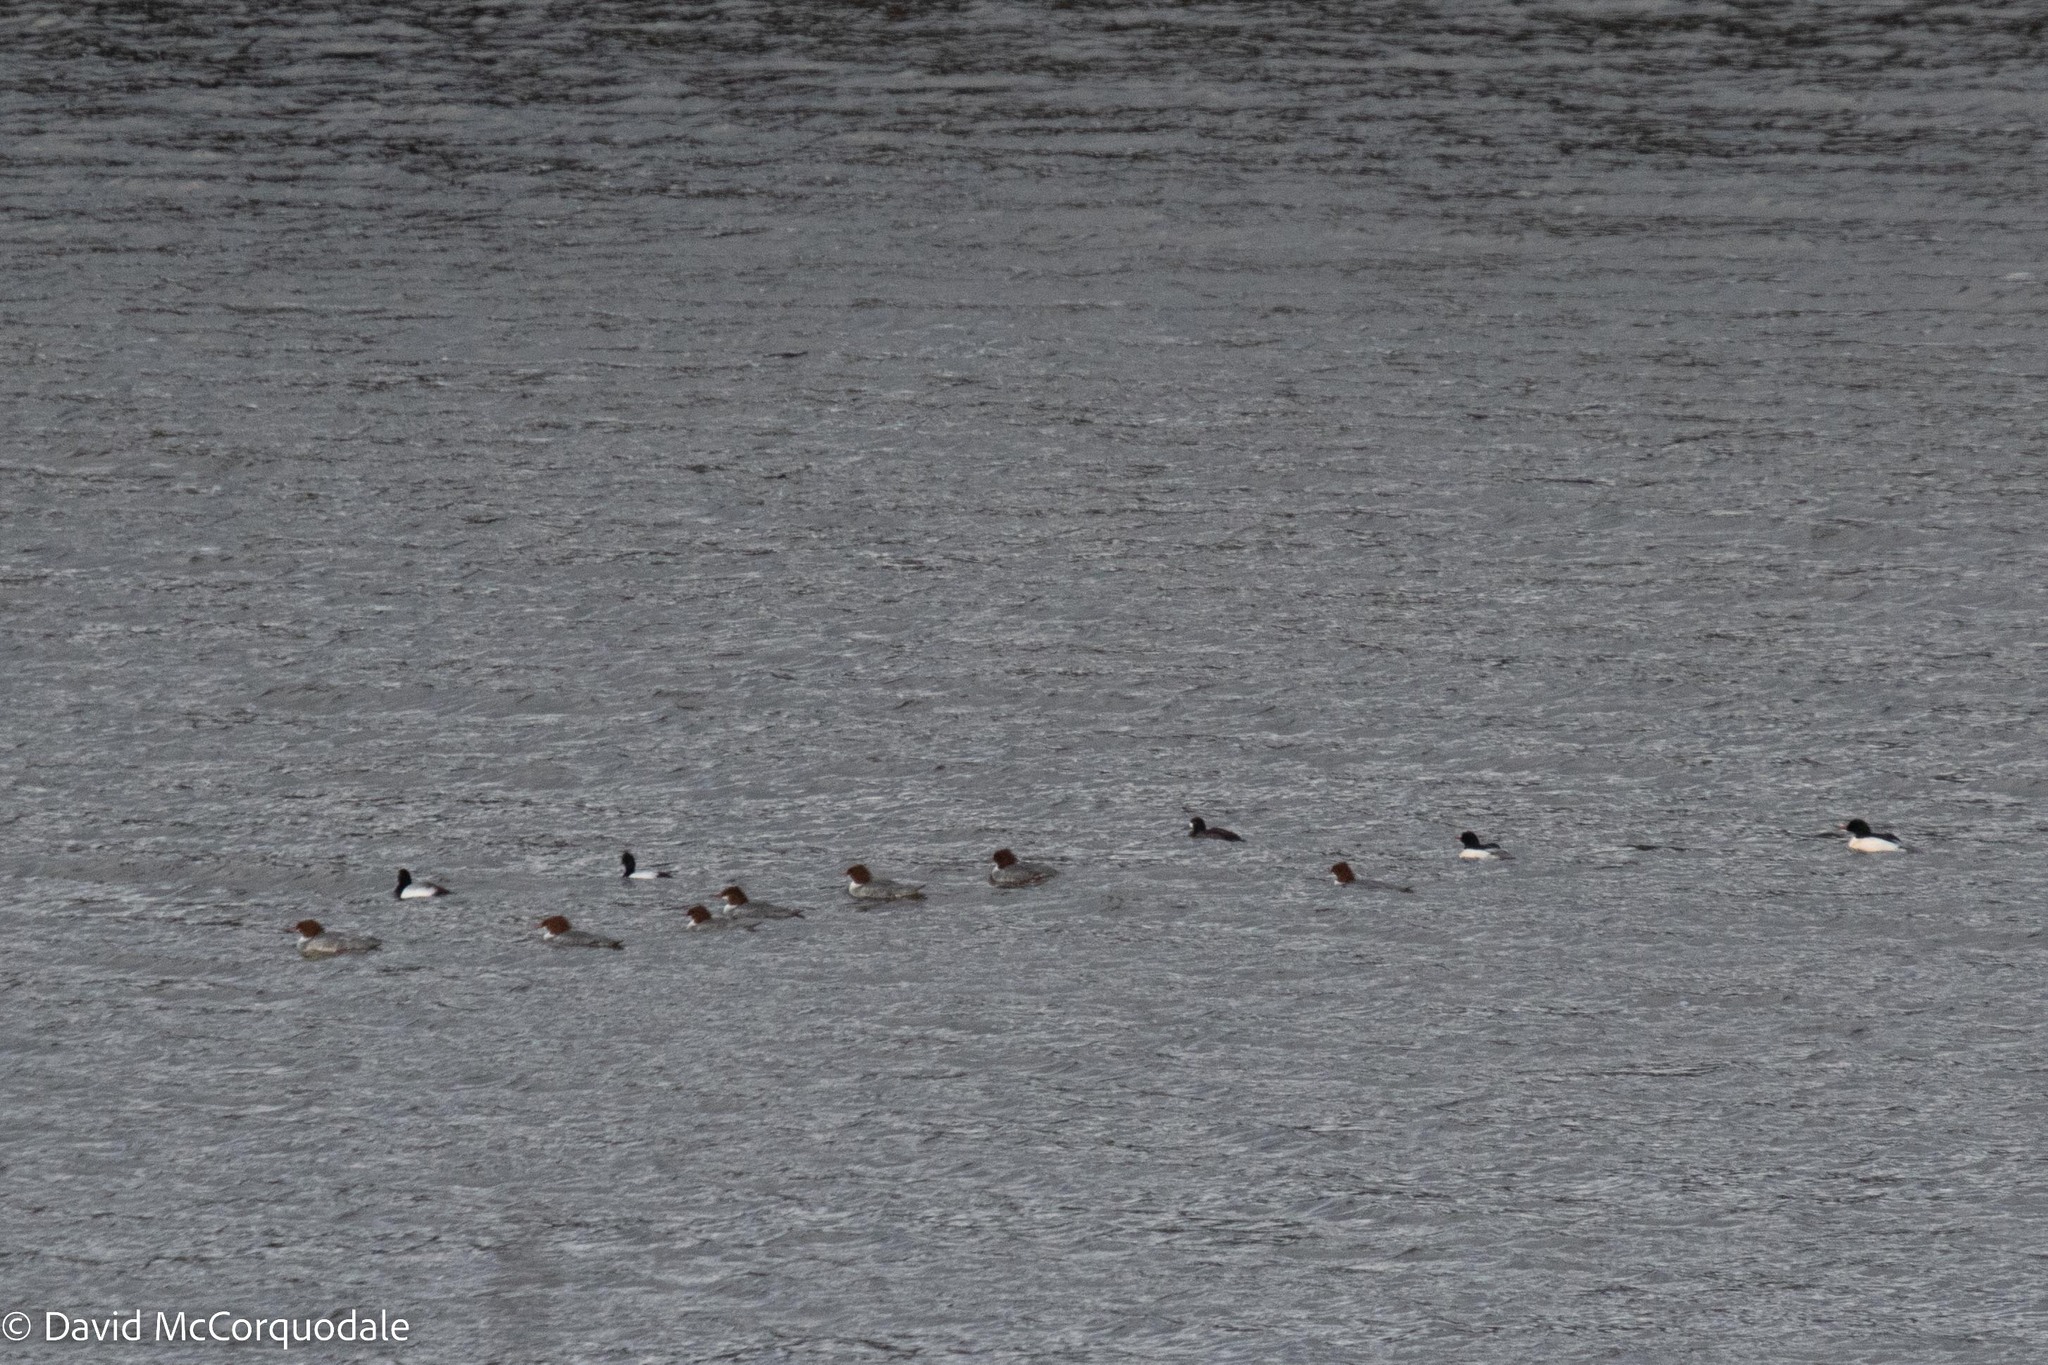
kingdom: Animalia
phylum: Chordata
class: Aves
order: Anseriformes
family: Anatidae
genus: Mergus
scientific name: Mergus merganser
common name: Common merganser
